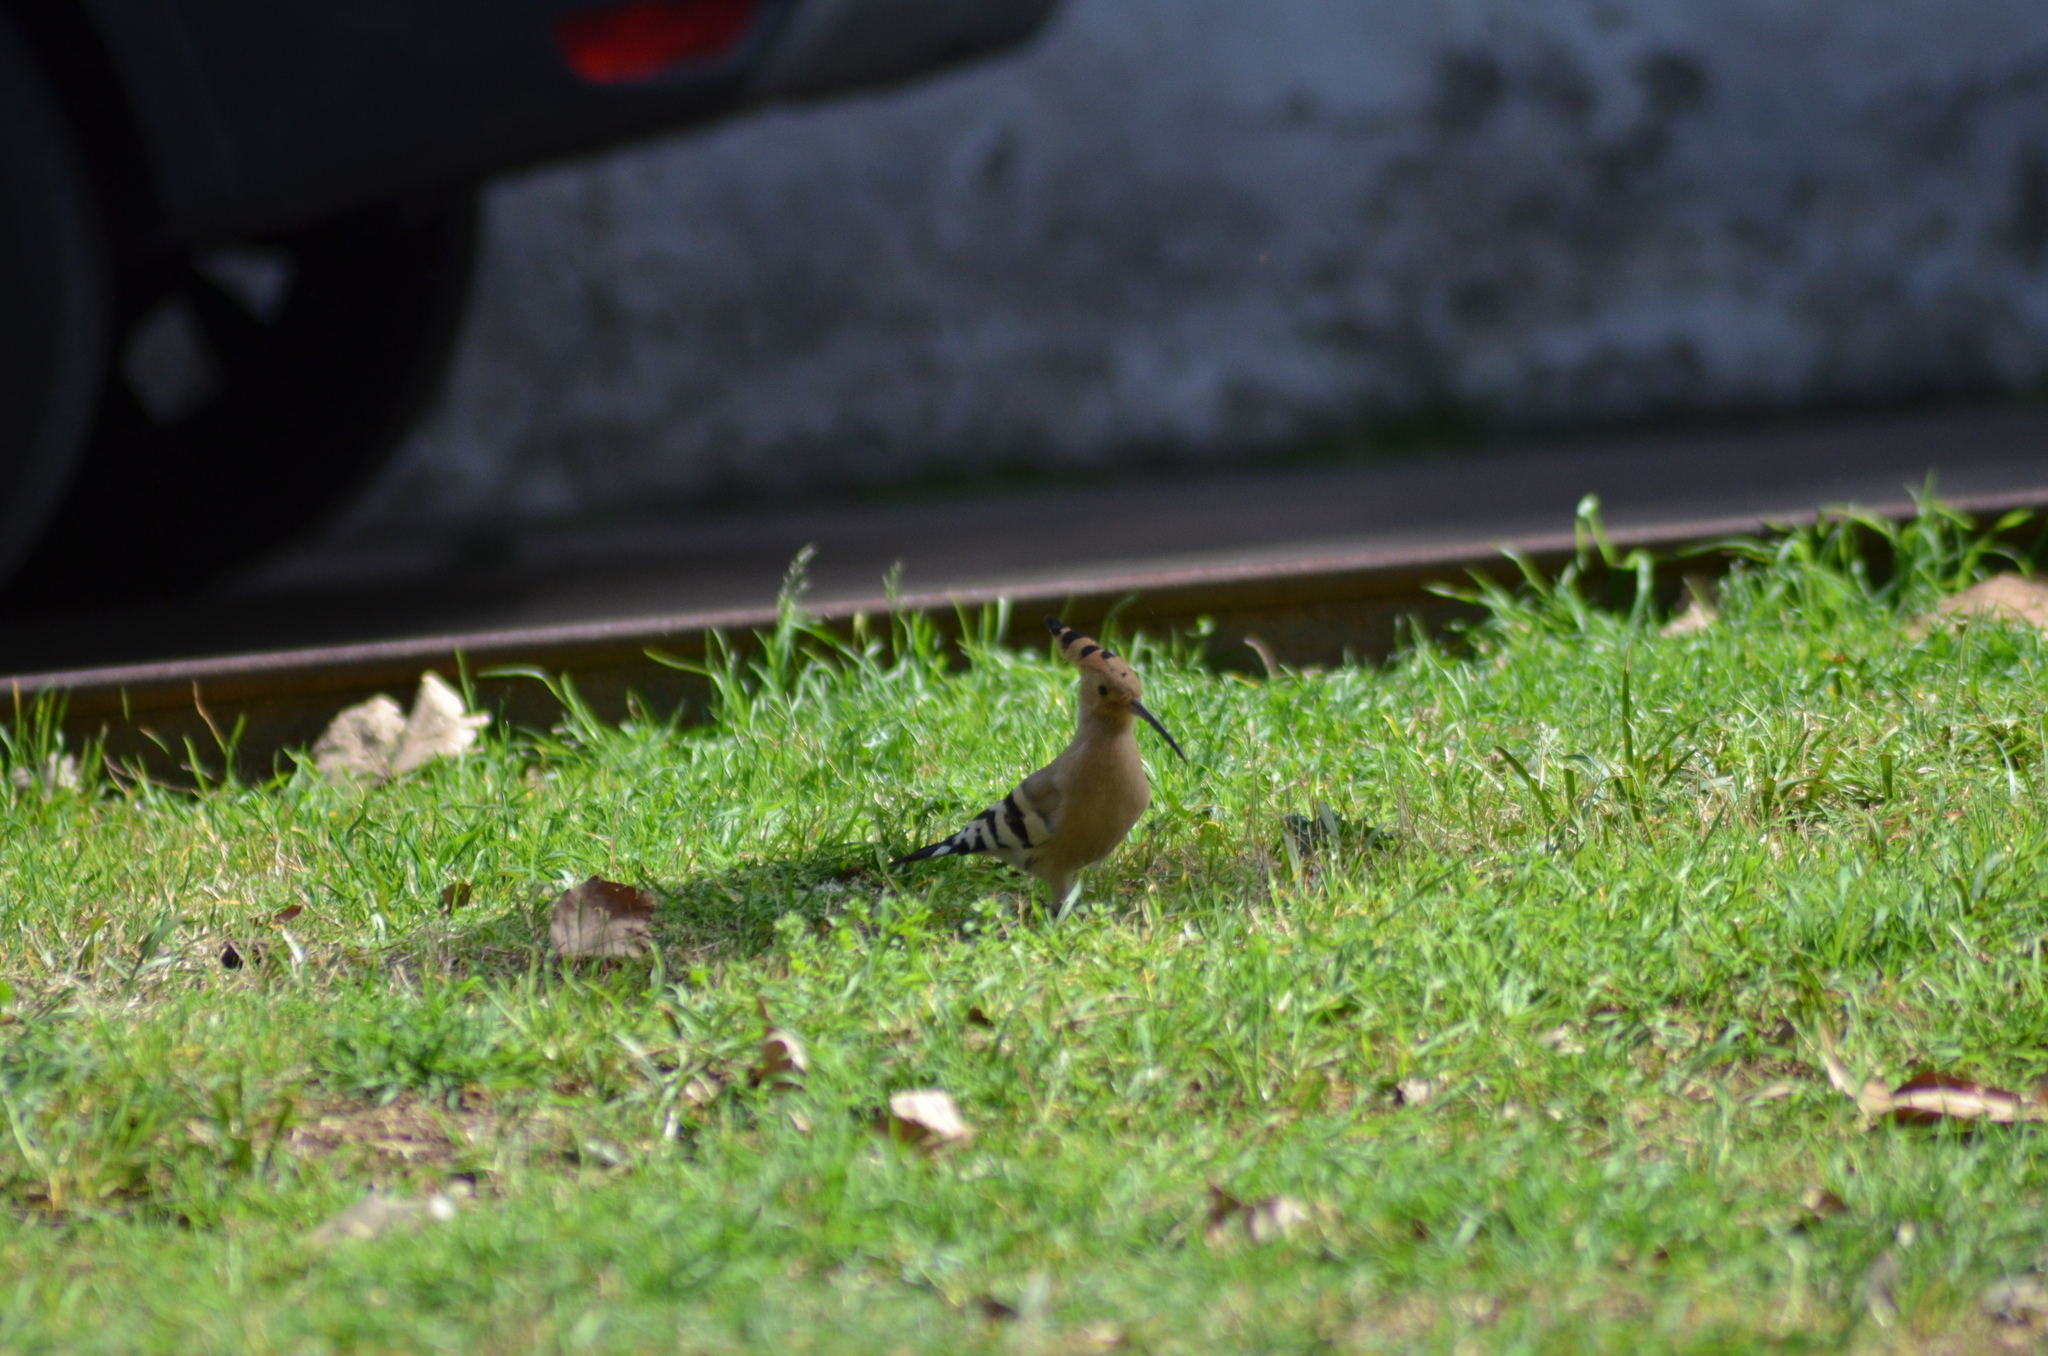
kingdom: Animalia
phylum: Chordata
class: Aves
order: Bucerotiformes
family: Upupidae
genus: Upupa
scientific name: Upupa epops
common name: Eurasian hoopoe
